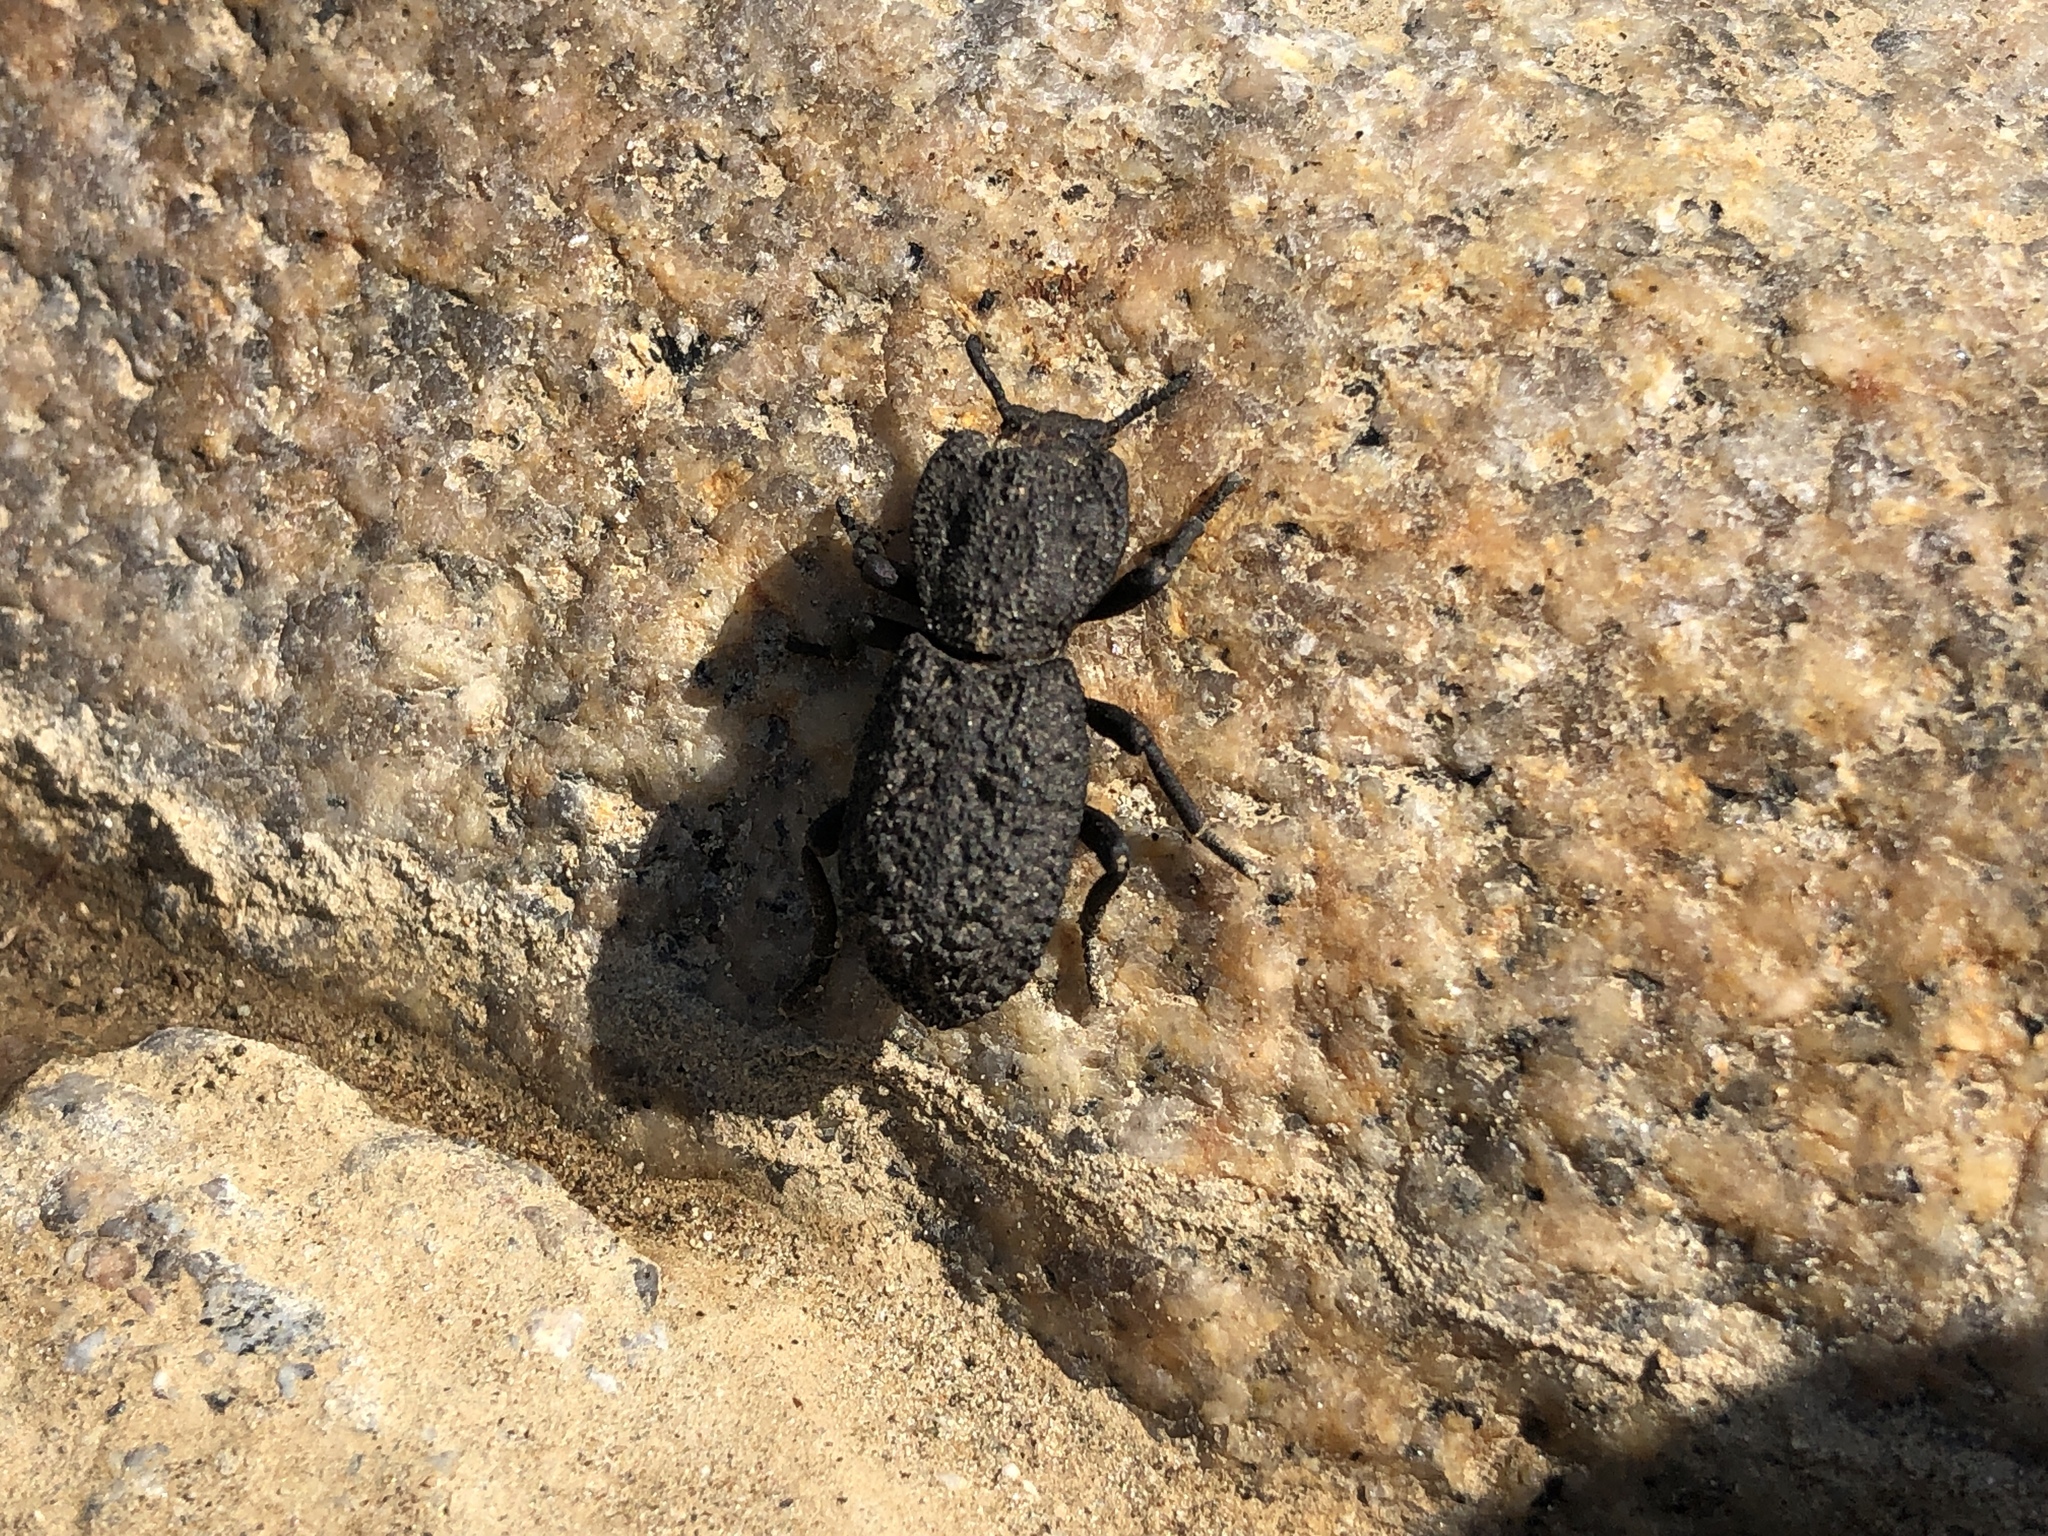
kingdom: Animalia
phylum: Arthropoda
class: Insecta
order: Coleoptera
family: Zopheridae
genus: Phloeodes
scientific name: Phloeodes diabolicus
